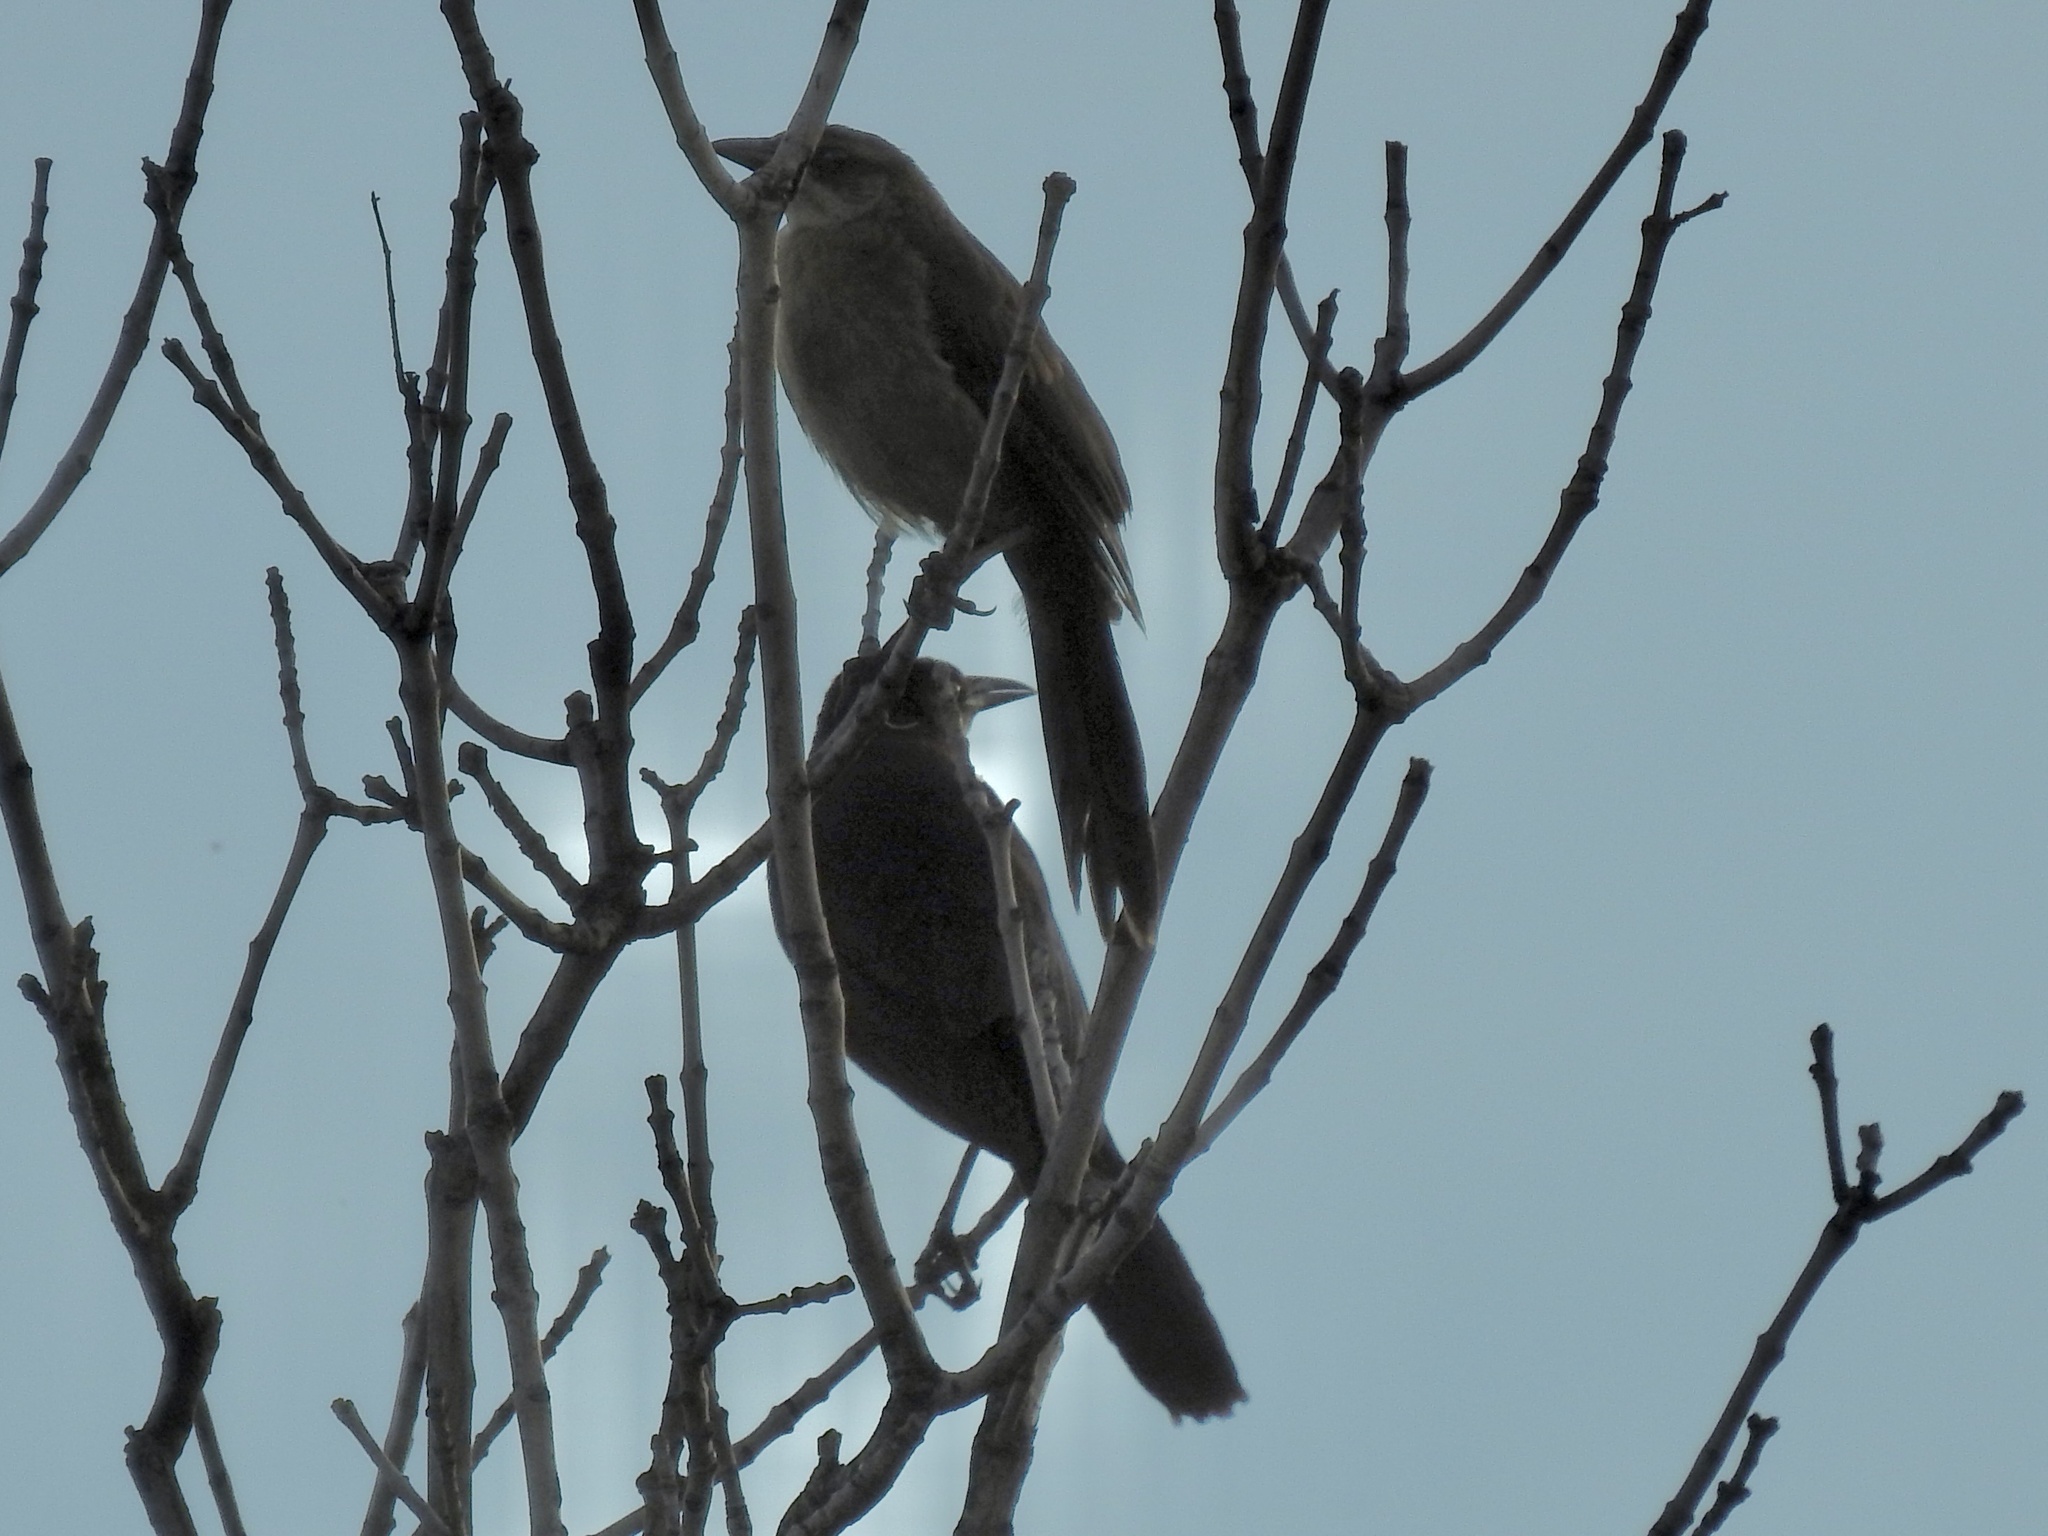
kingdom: Animalia
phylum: Chordata
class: Aves
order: Passeriformes
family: Icteridae
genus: Quiscalus
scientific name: Quiscalus mexicanus
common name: Great-tailed grackle
